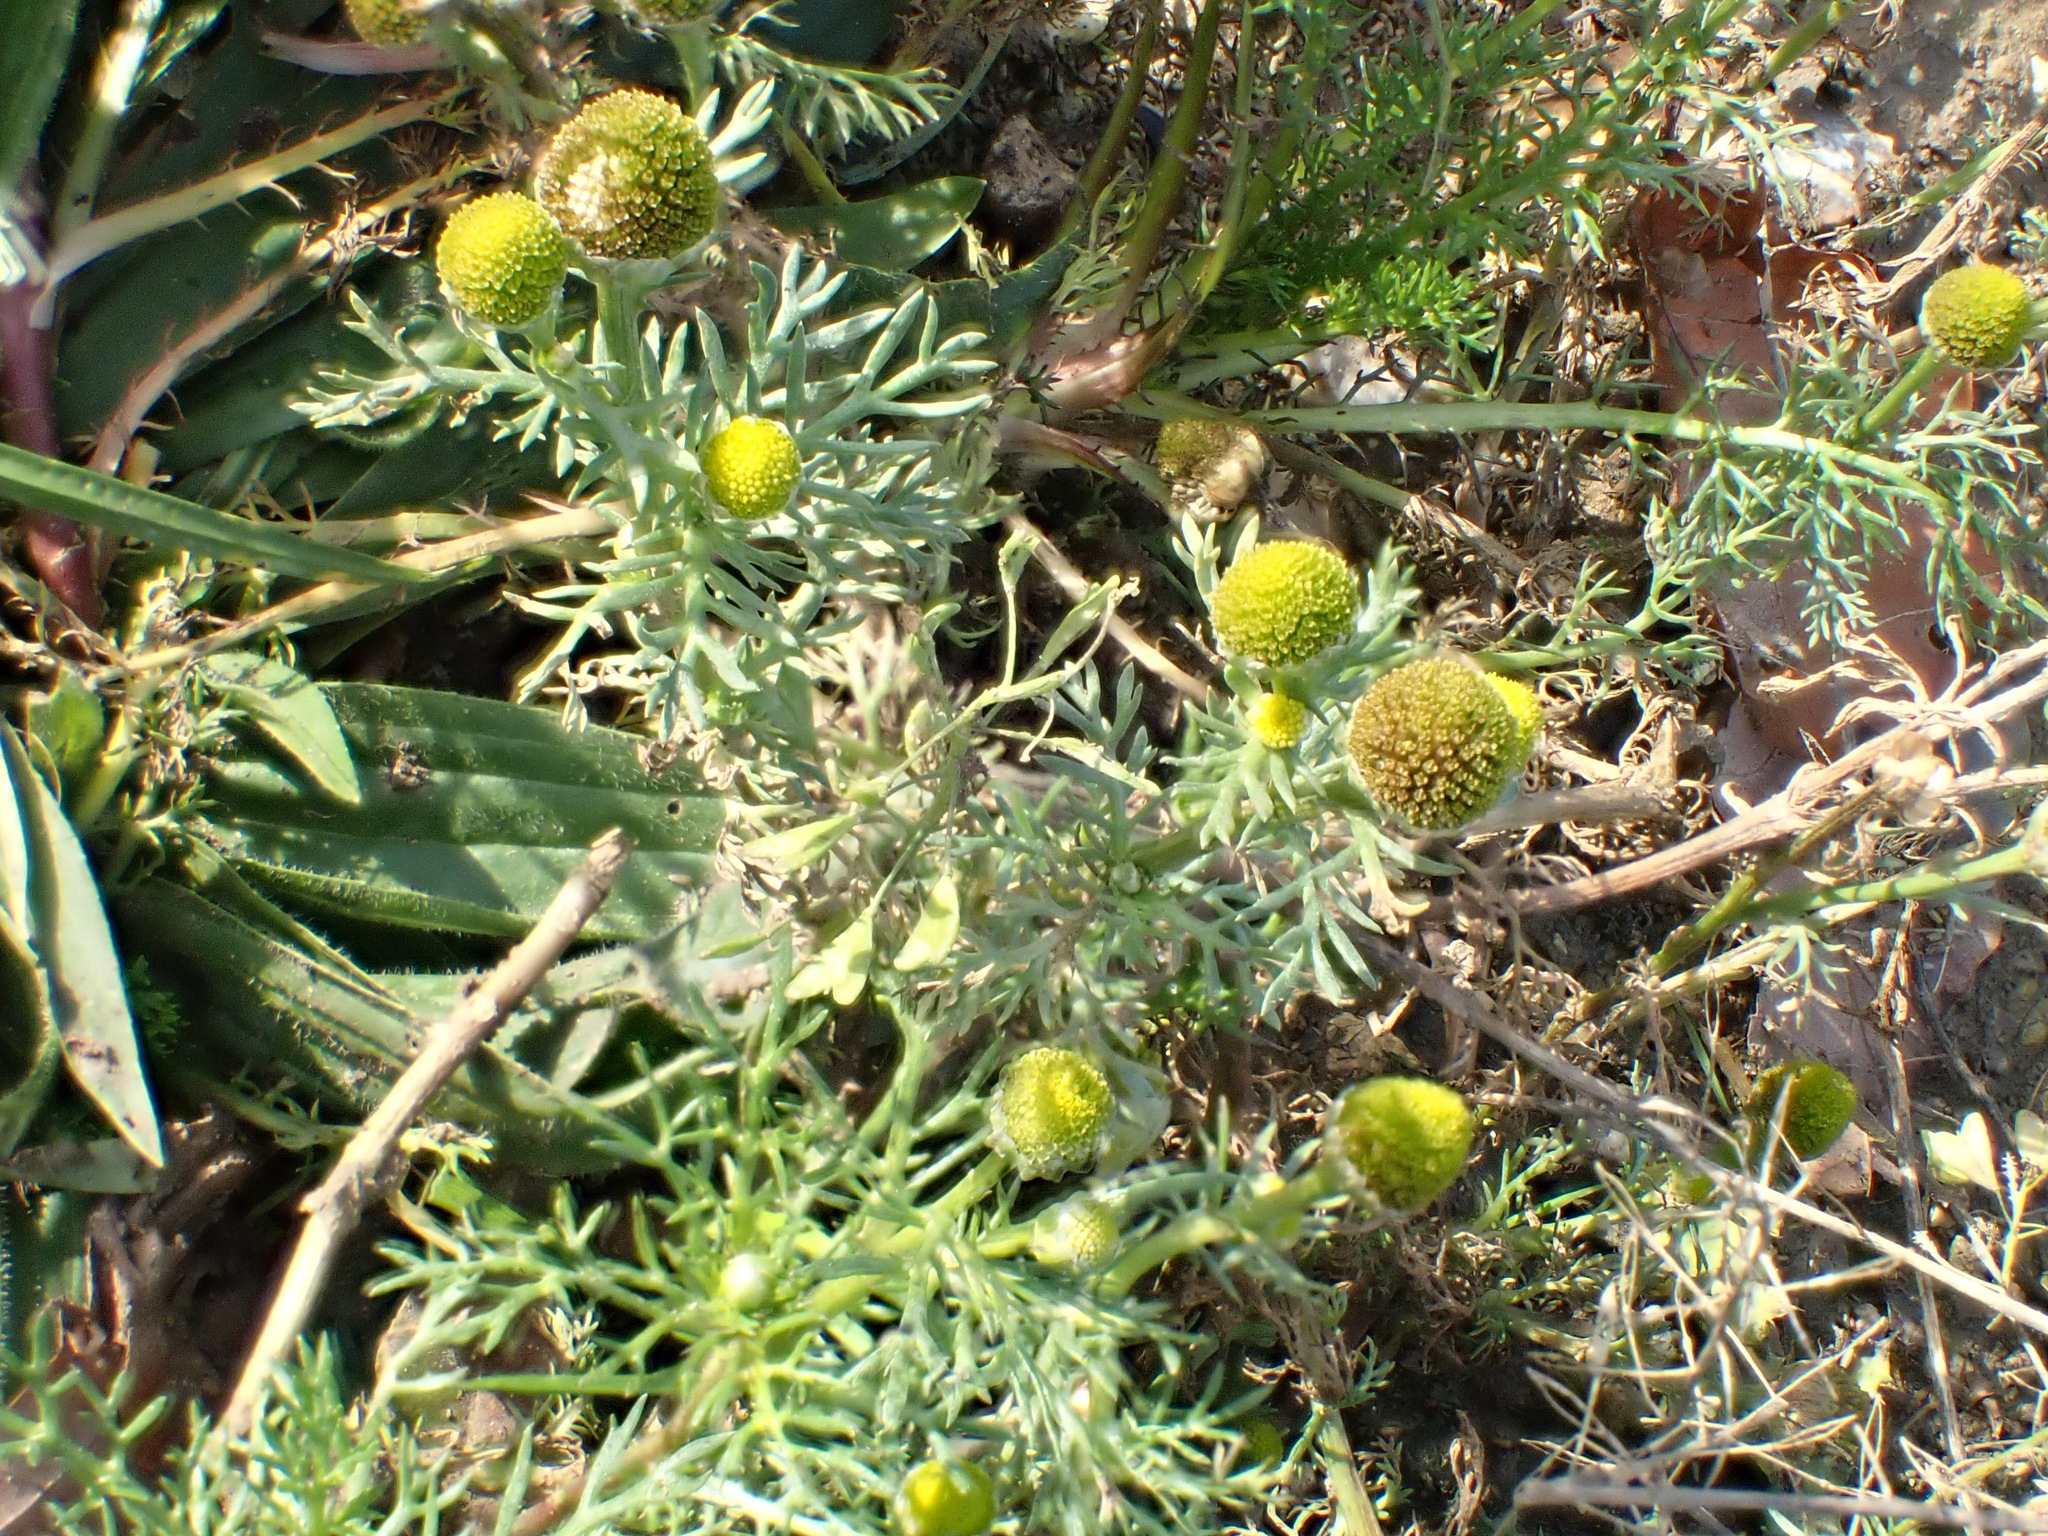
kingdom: Plantae
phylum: Tracheophyta
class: Magnoliopsida
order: Asterales
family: Asteraceae
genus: Matricaria
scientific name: Matricaria discoidea
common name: Disc mayweed
